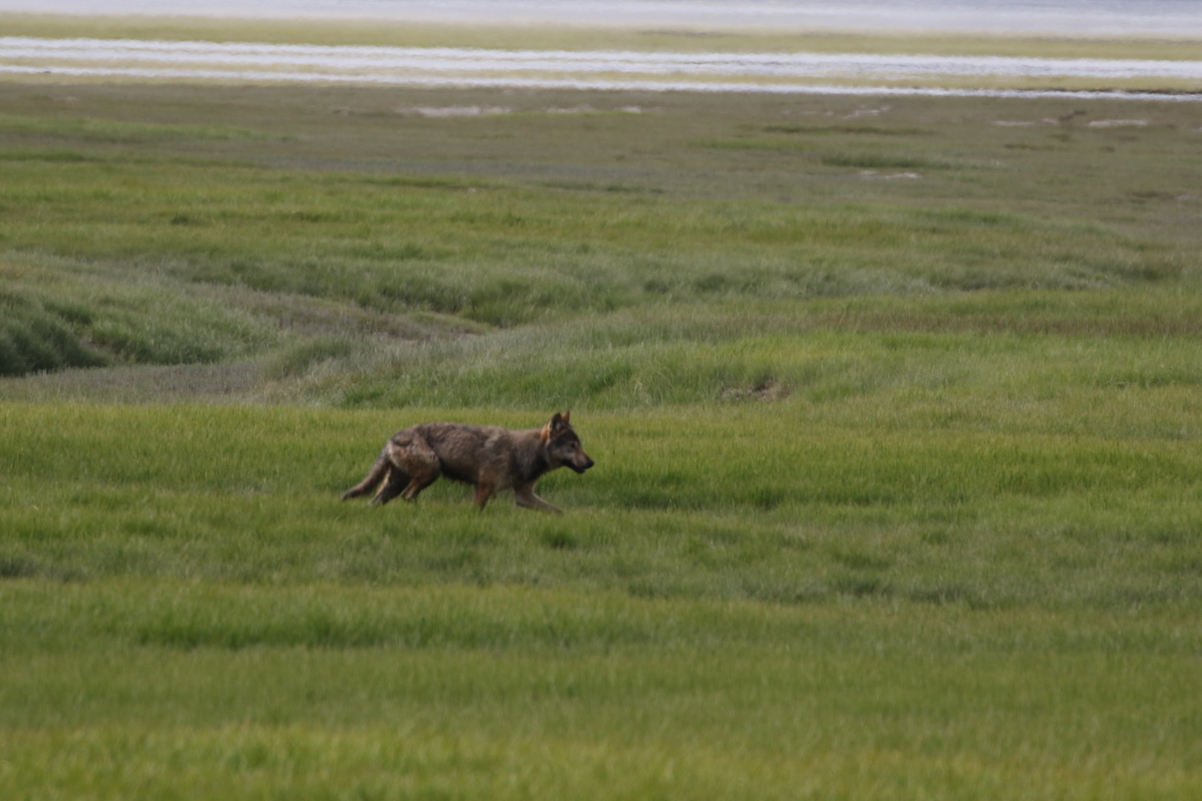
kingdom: Animalia
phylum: Chordata
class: Mammalia
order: Carnivora
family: Canidae
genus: Canis
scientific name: Canis lupus
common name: Gray wolf
